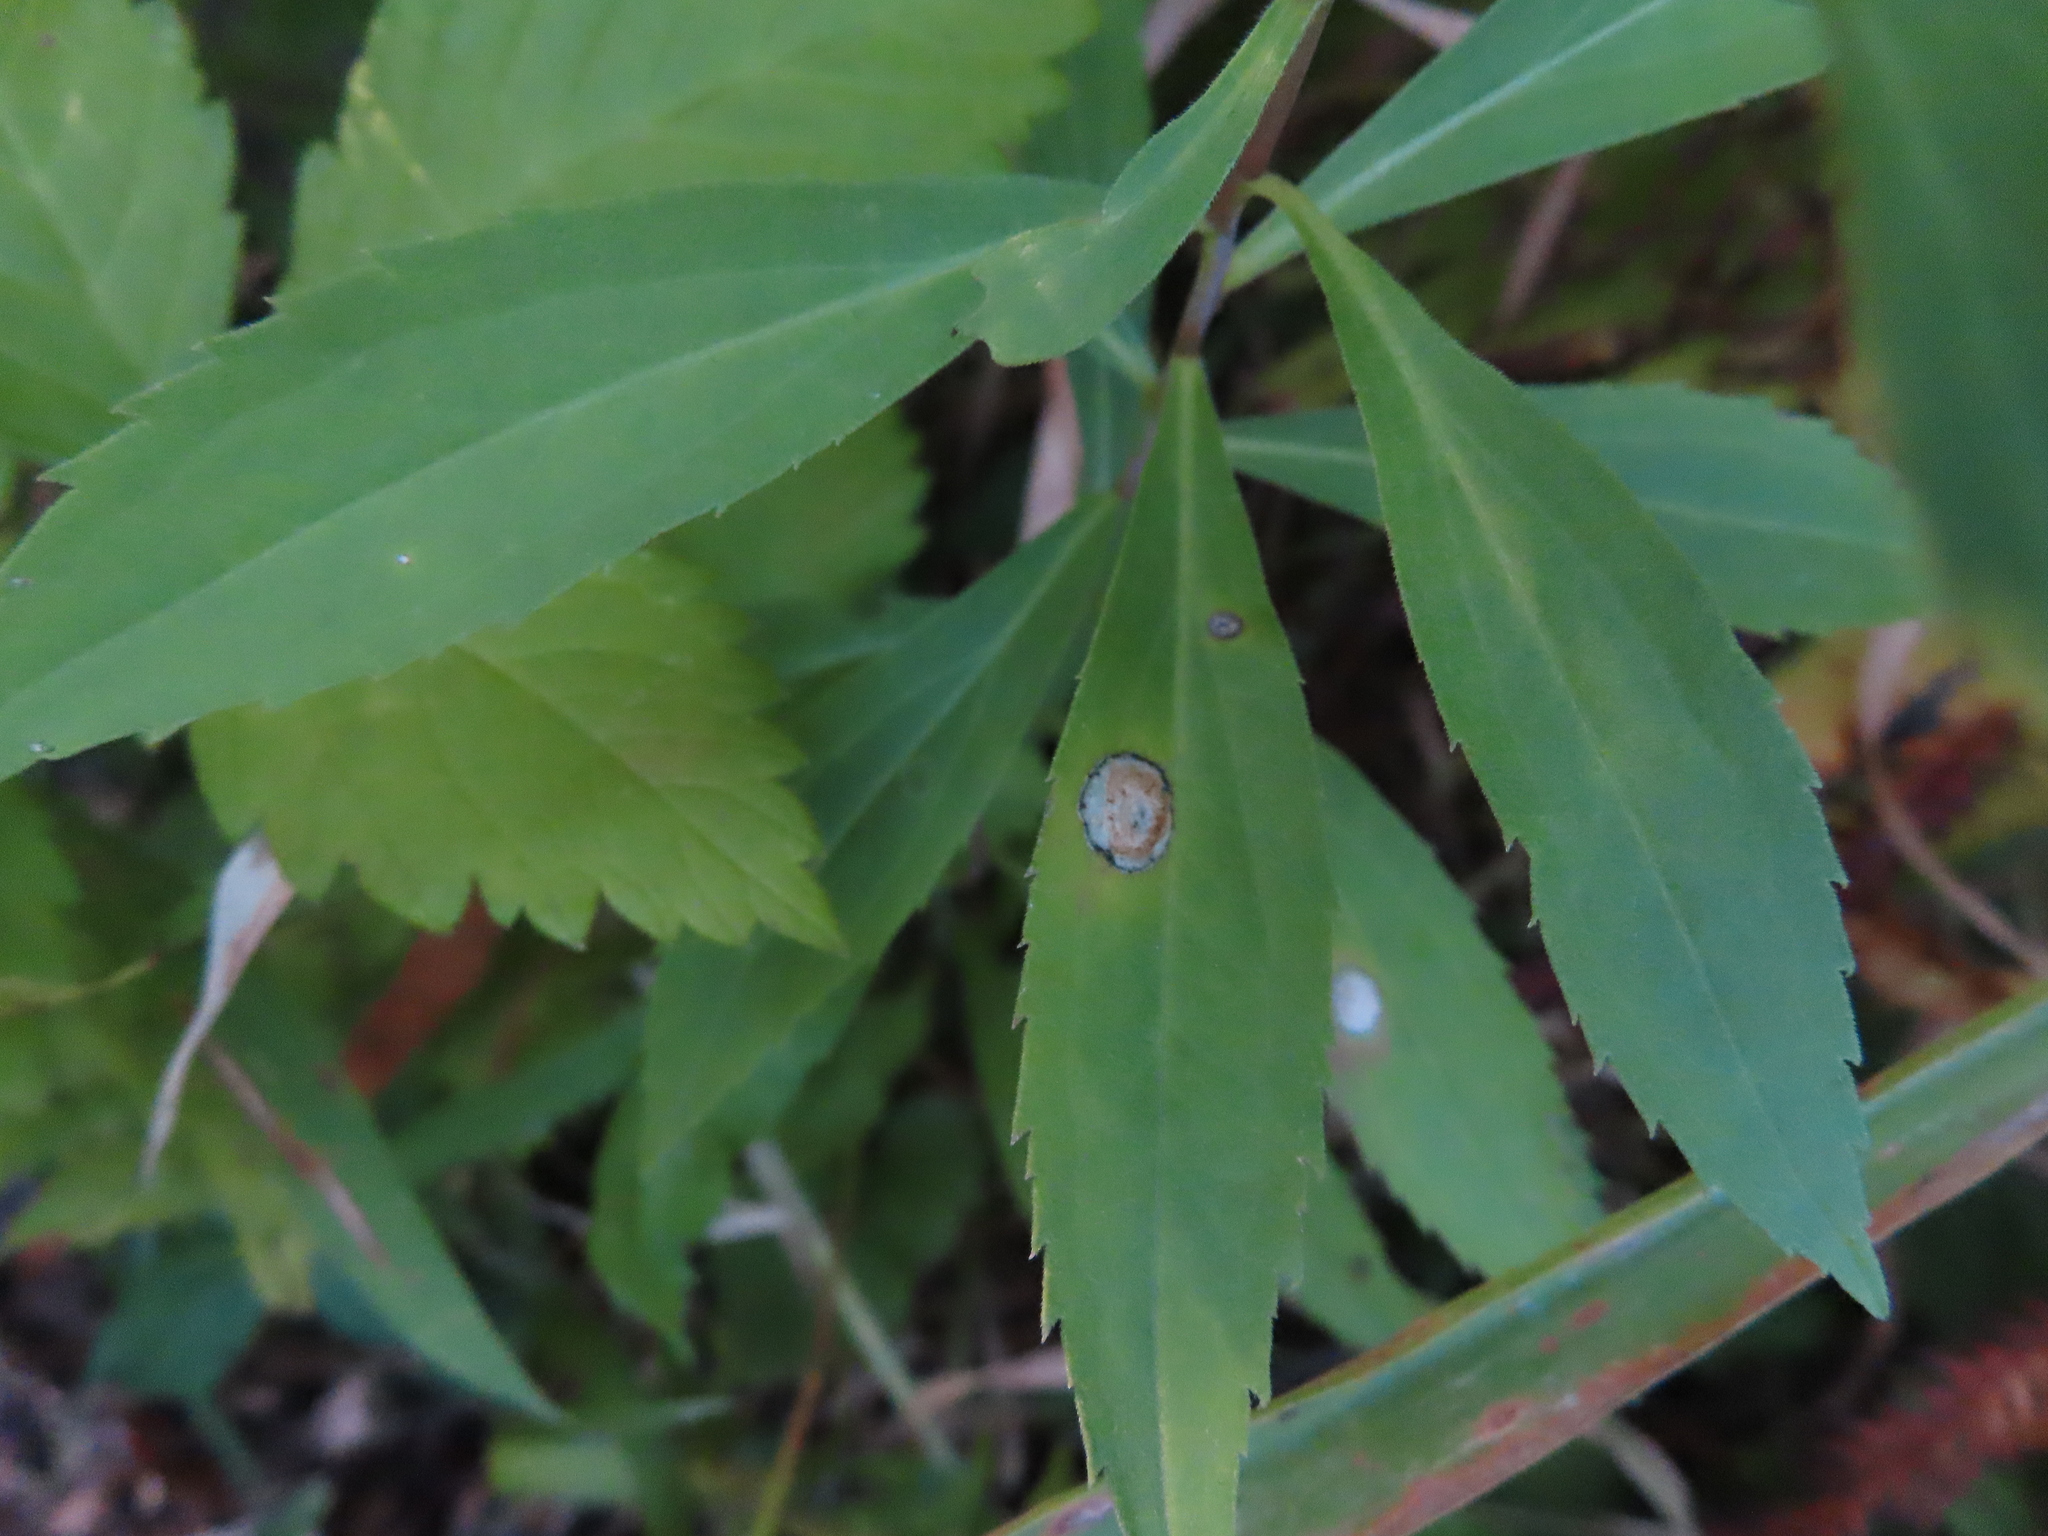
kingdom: Animalia
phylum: Arthropoda
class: Insecta
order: Diptera
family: Cecidomyiidae
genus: Asteromyia
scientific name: Asteromyia carbonifera
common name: Carbonifera goldenrod gall midge
